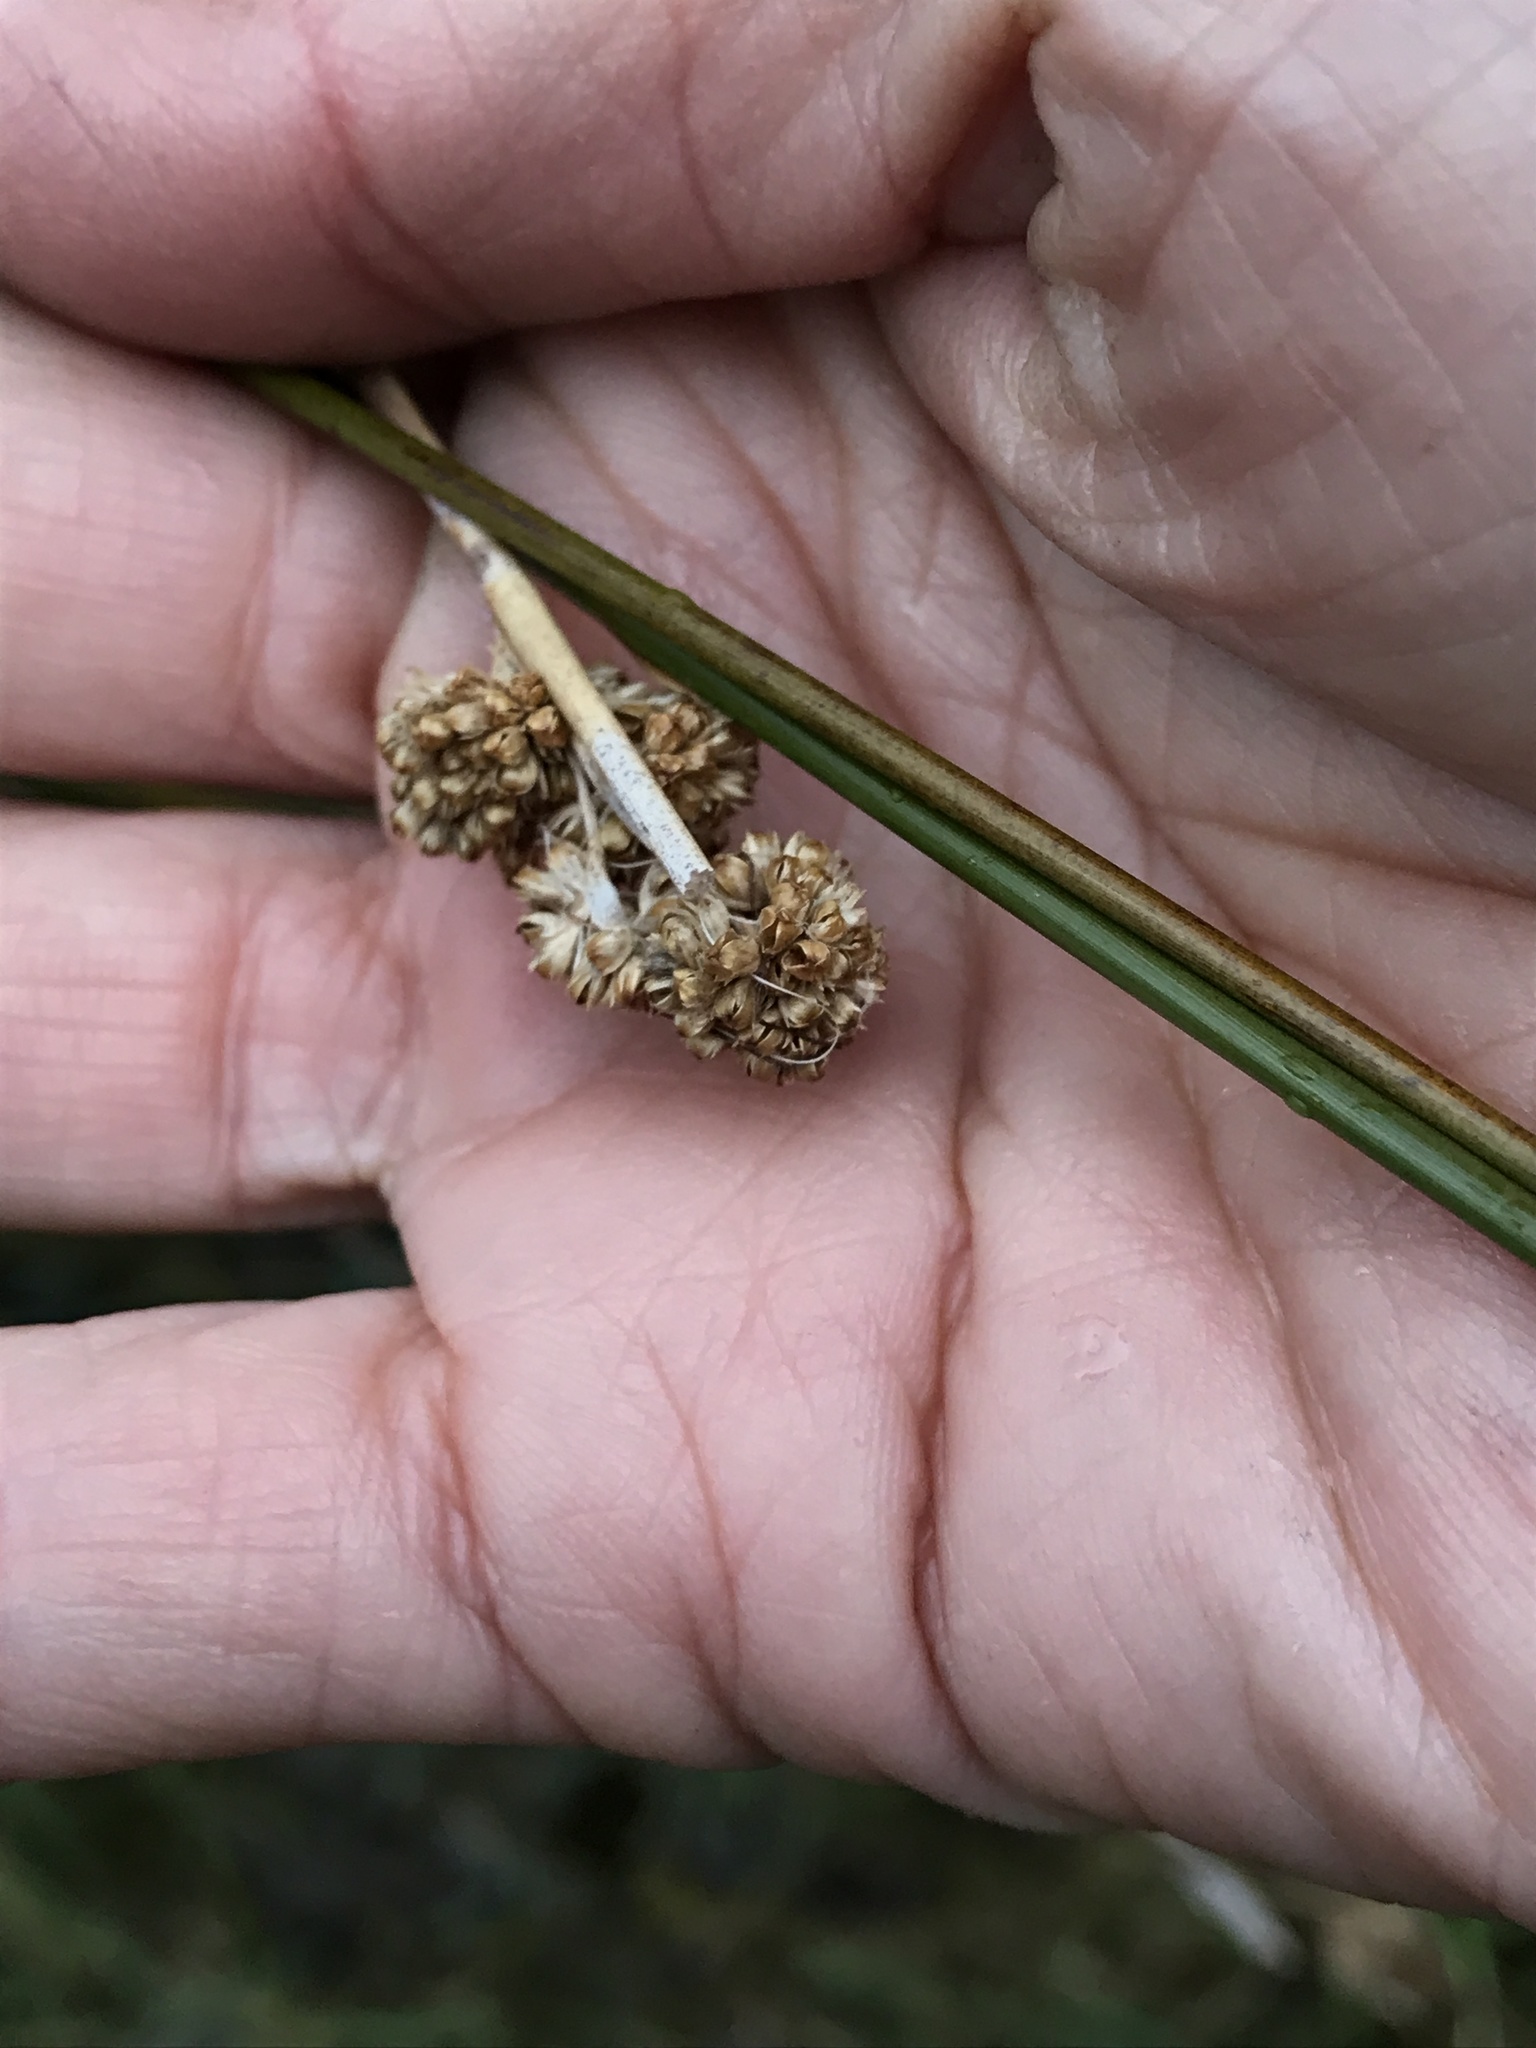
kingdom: Plantae
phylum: Tracheophyta
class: Liliopsida
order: Poales
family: Cyperaceae
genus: Ficinia
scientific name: Ficinia nodosa
